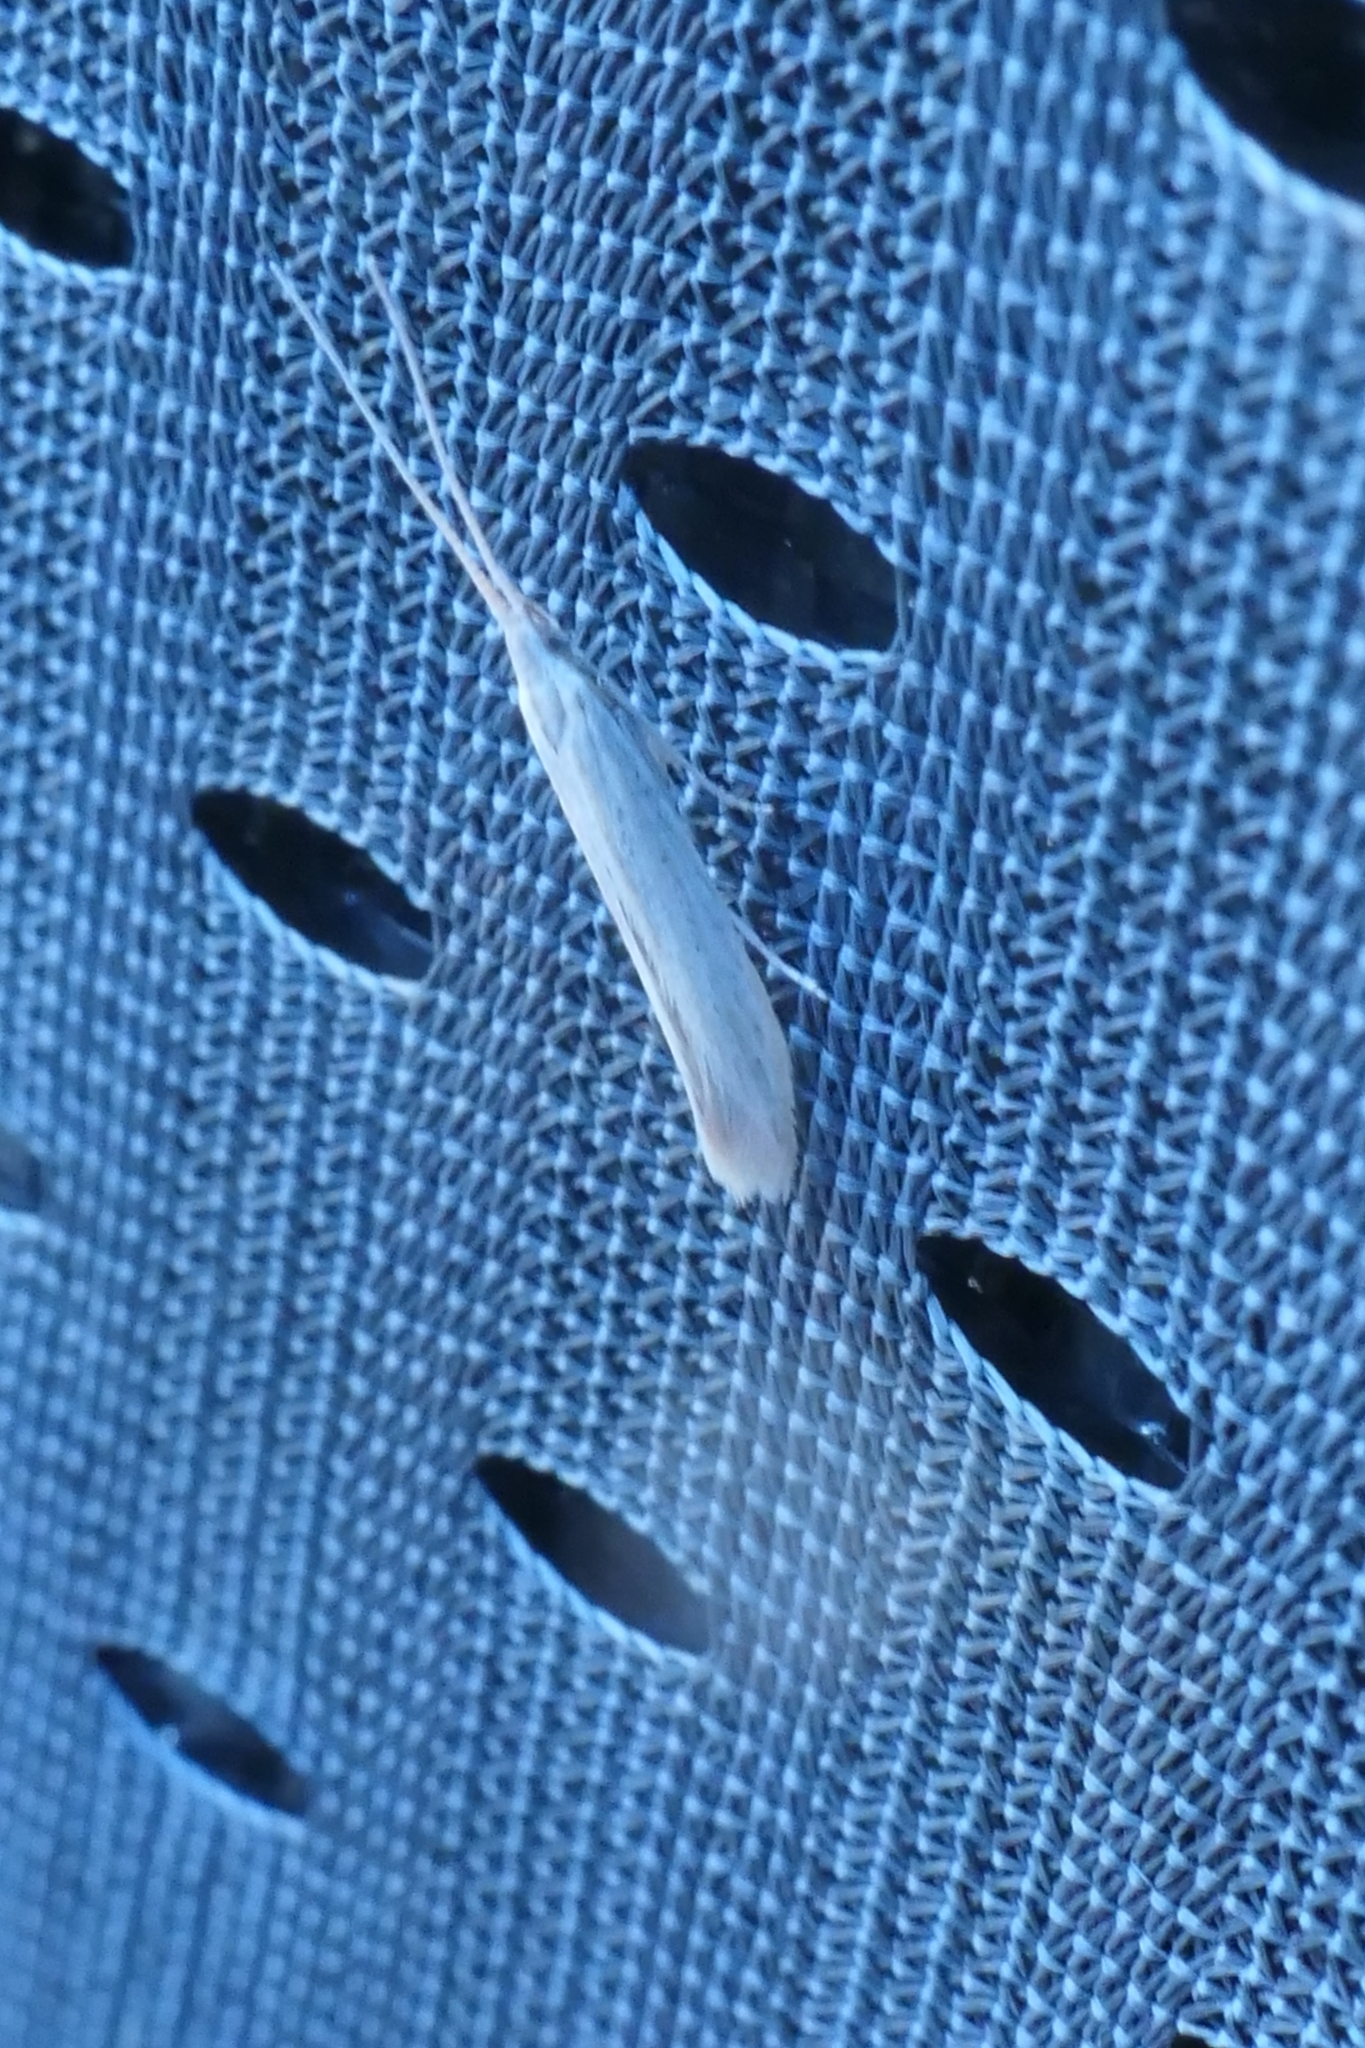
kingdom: Animalia
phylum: Arthropoda
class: Insecta
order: Lepidoptera
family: Coleophoridae
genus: Coleophora
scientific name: Coleophora versurella
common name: Pale orache case-bearer
